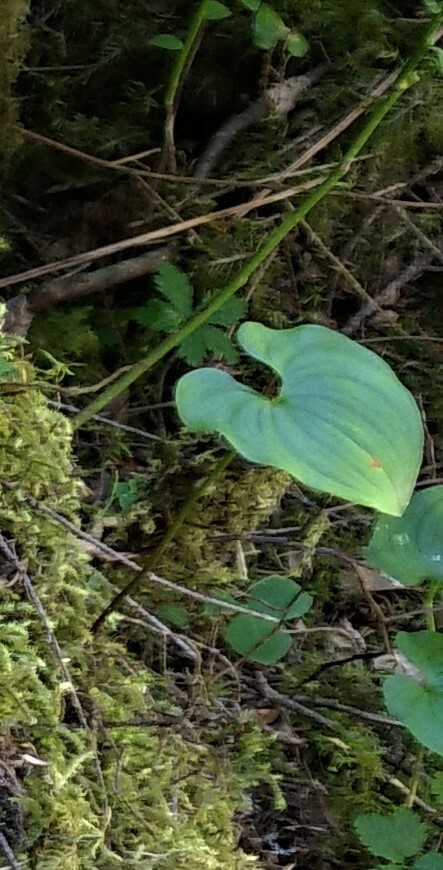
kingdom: Plantae
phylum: Tracheophyta
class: Liliopsida
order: Asparagales
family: Asparagaceae
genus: Maianthemum
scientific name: Maianthemum dilatatum
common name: False lily-of-the-valley
